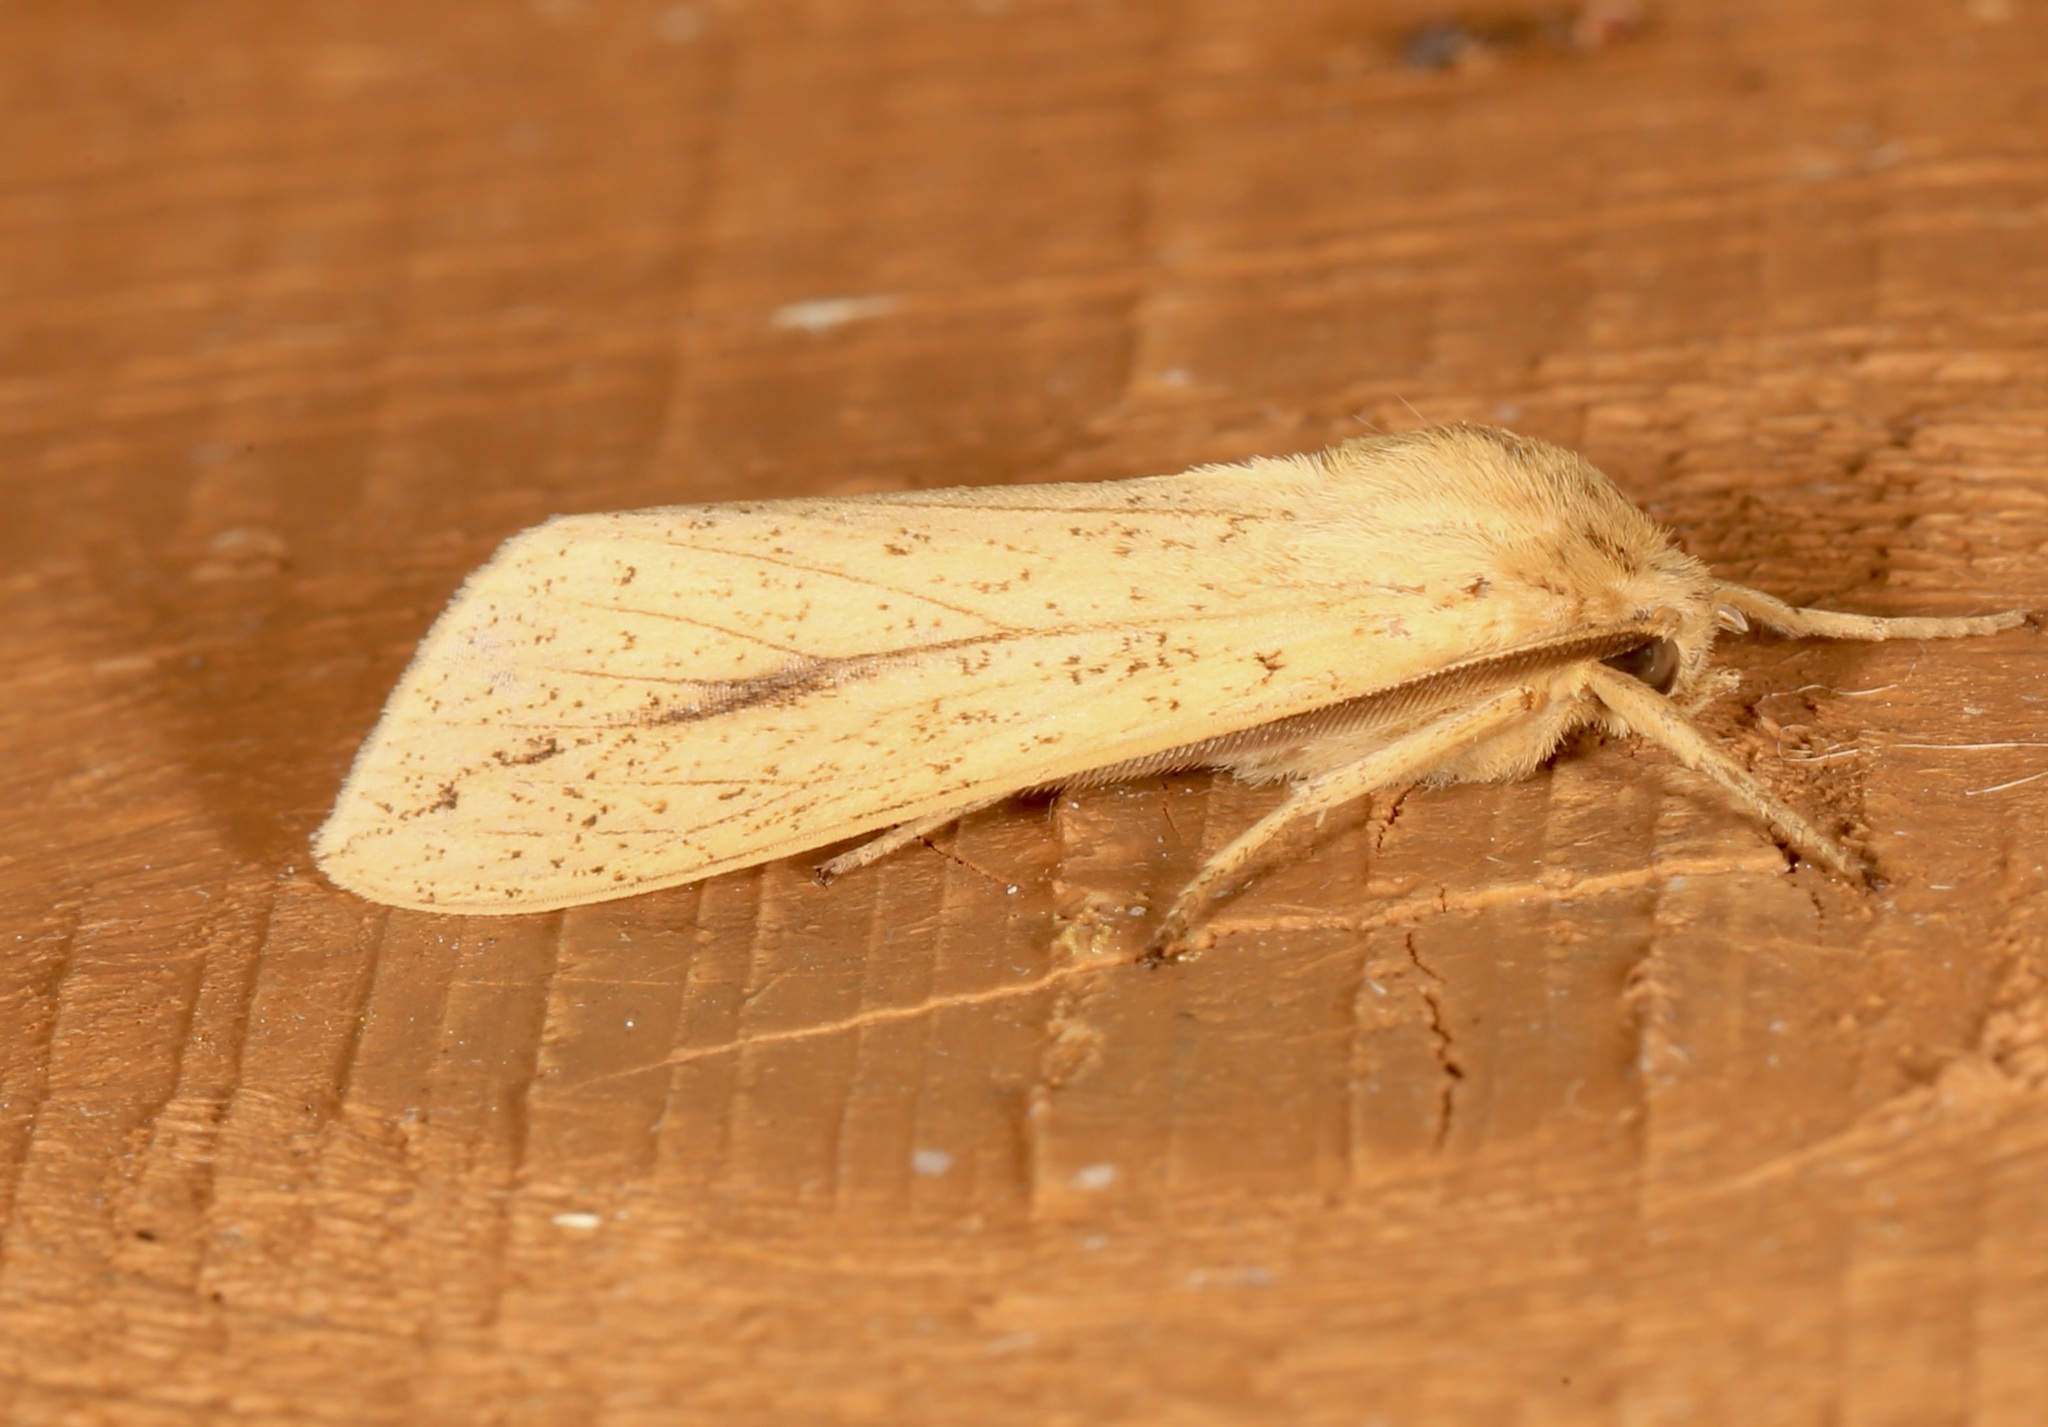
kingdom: Animalia
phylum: Arthropoda
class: Insecta
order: Lepidoptera
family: Erebidae
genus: Leucanopsis
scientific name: Leucanopsis longa
